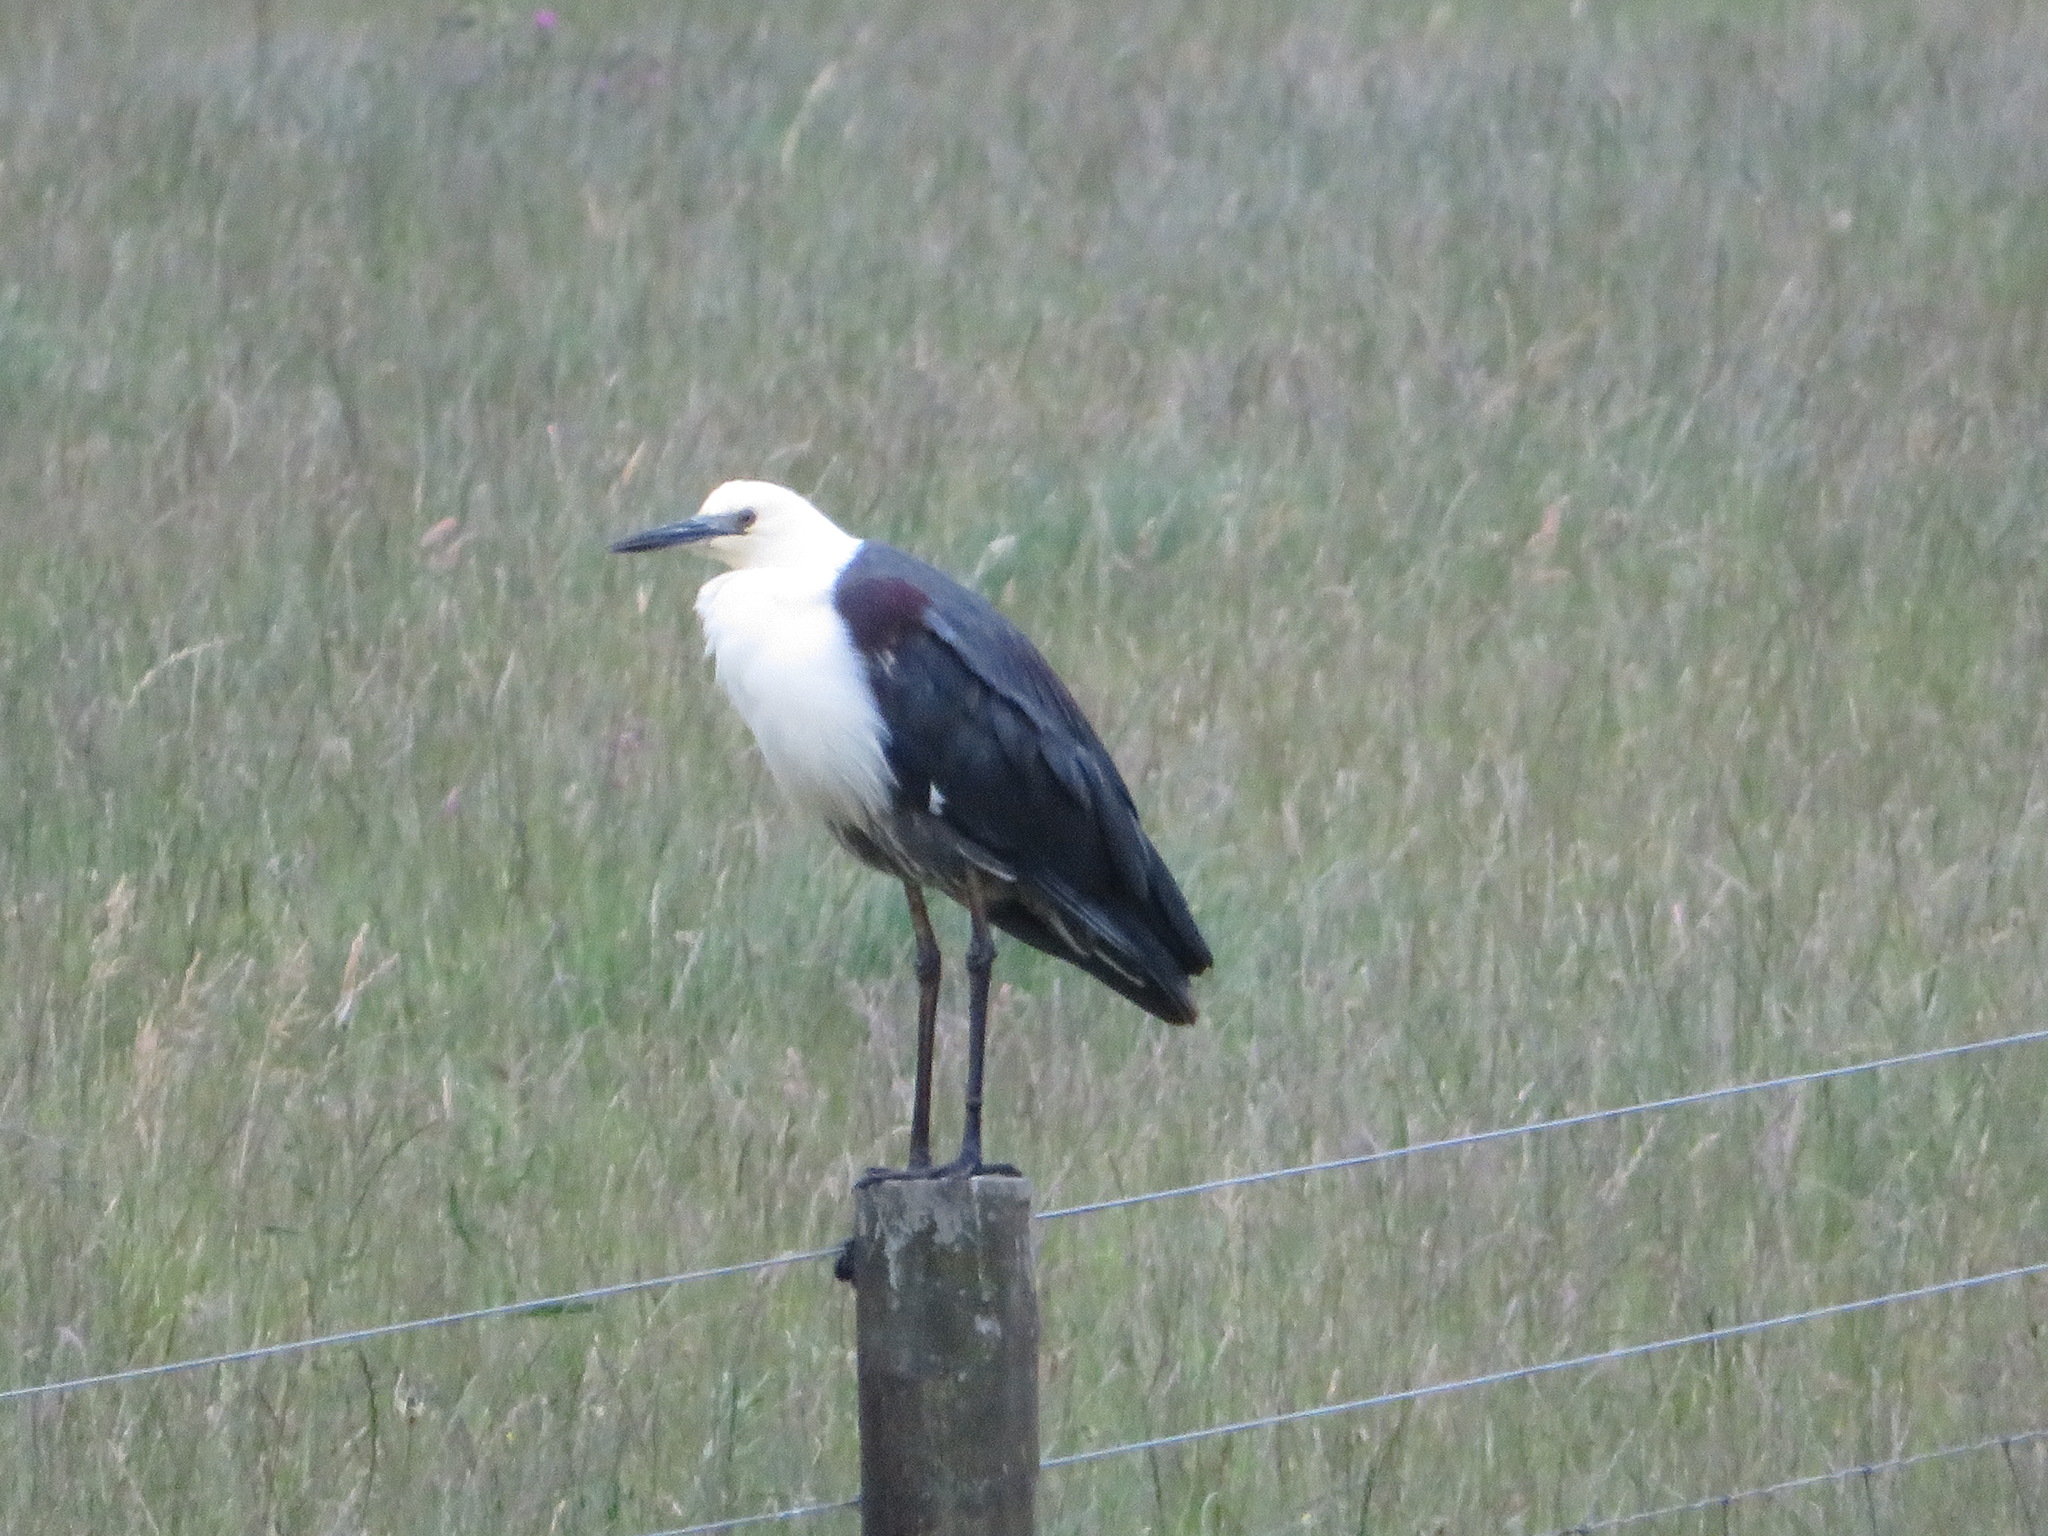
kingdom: Animalia
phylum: Chordata
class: Aves
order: Pelecaniformes
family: Ardeidae
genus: Ardea
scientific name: Ardea pacifica
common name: White-necked heron
